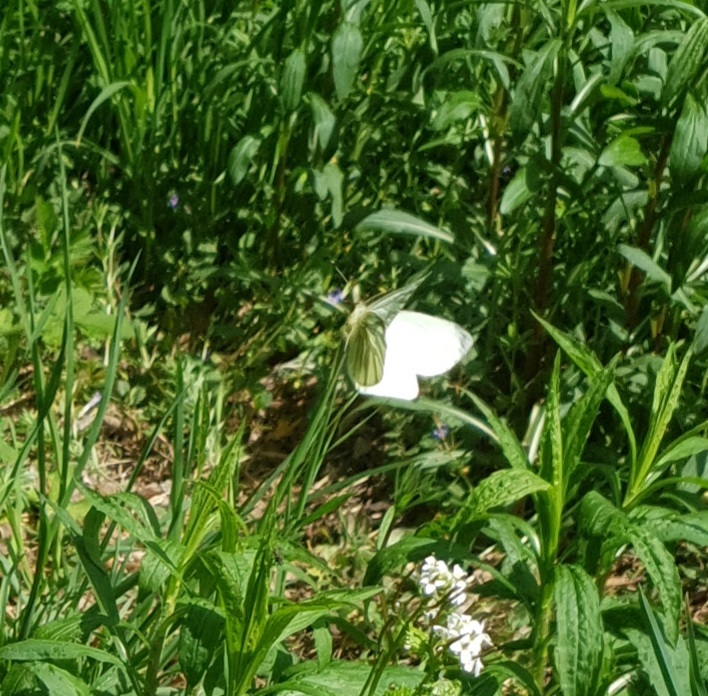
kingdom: Animalia
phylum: Arthropoda
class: Insecta
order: Lepidoptera
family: Pieridae
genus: Pieris
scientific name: Pieris napi
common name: Green-veined white
